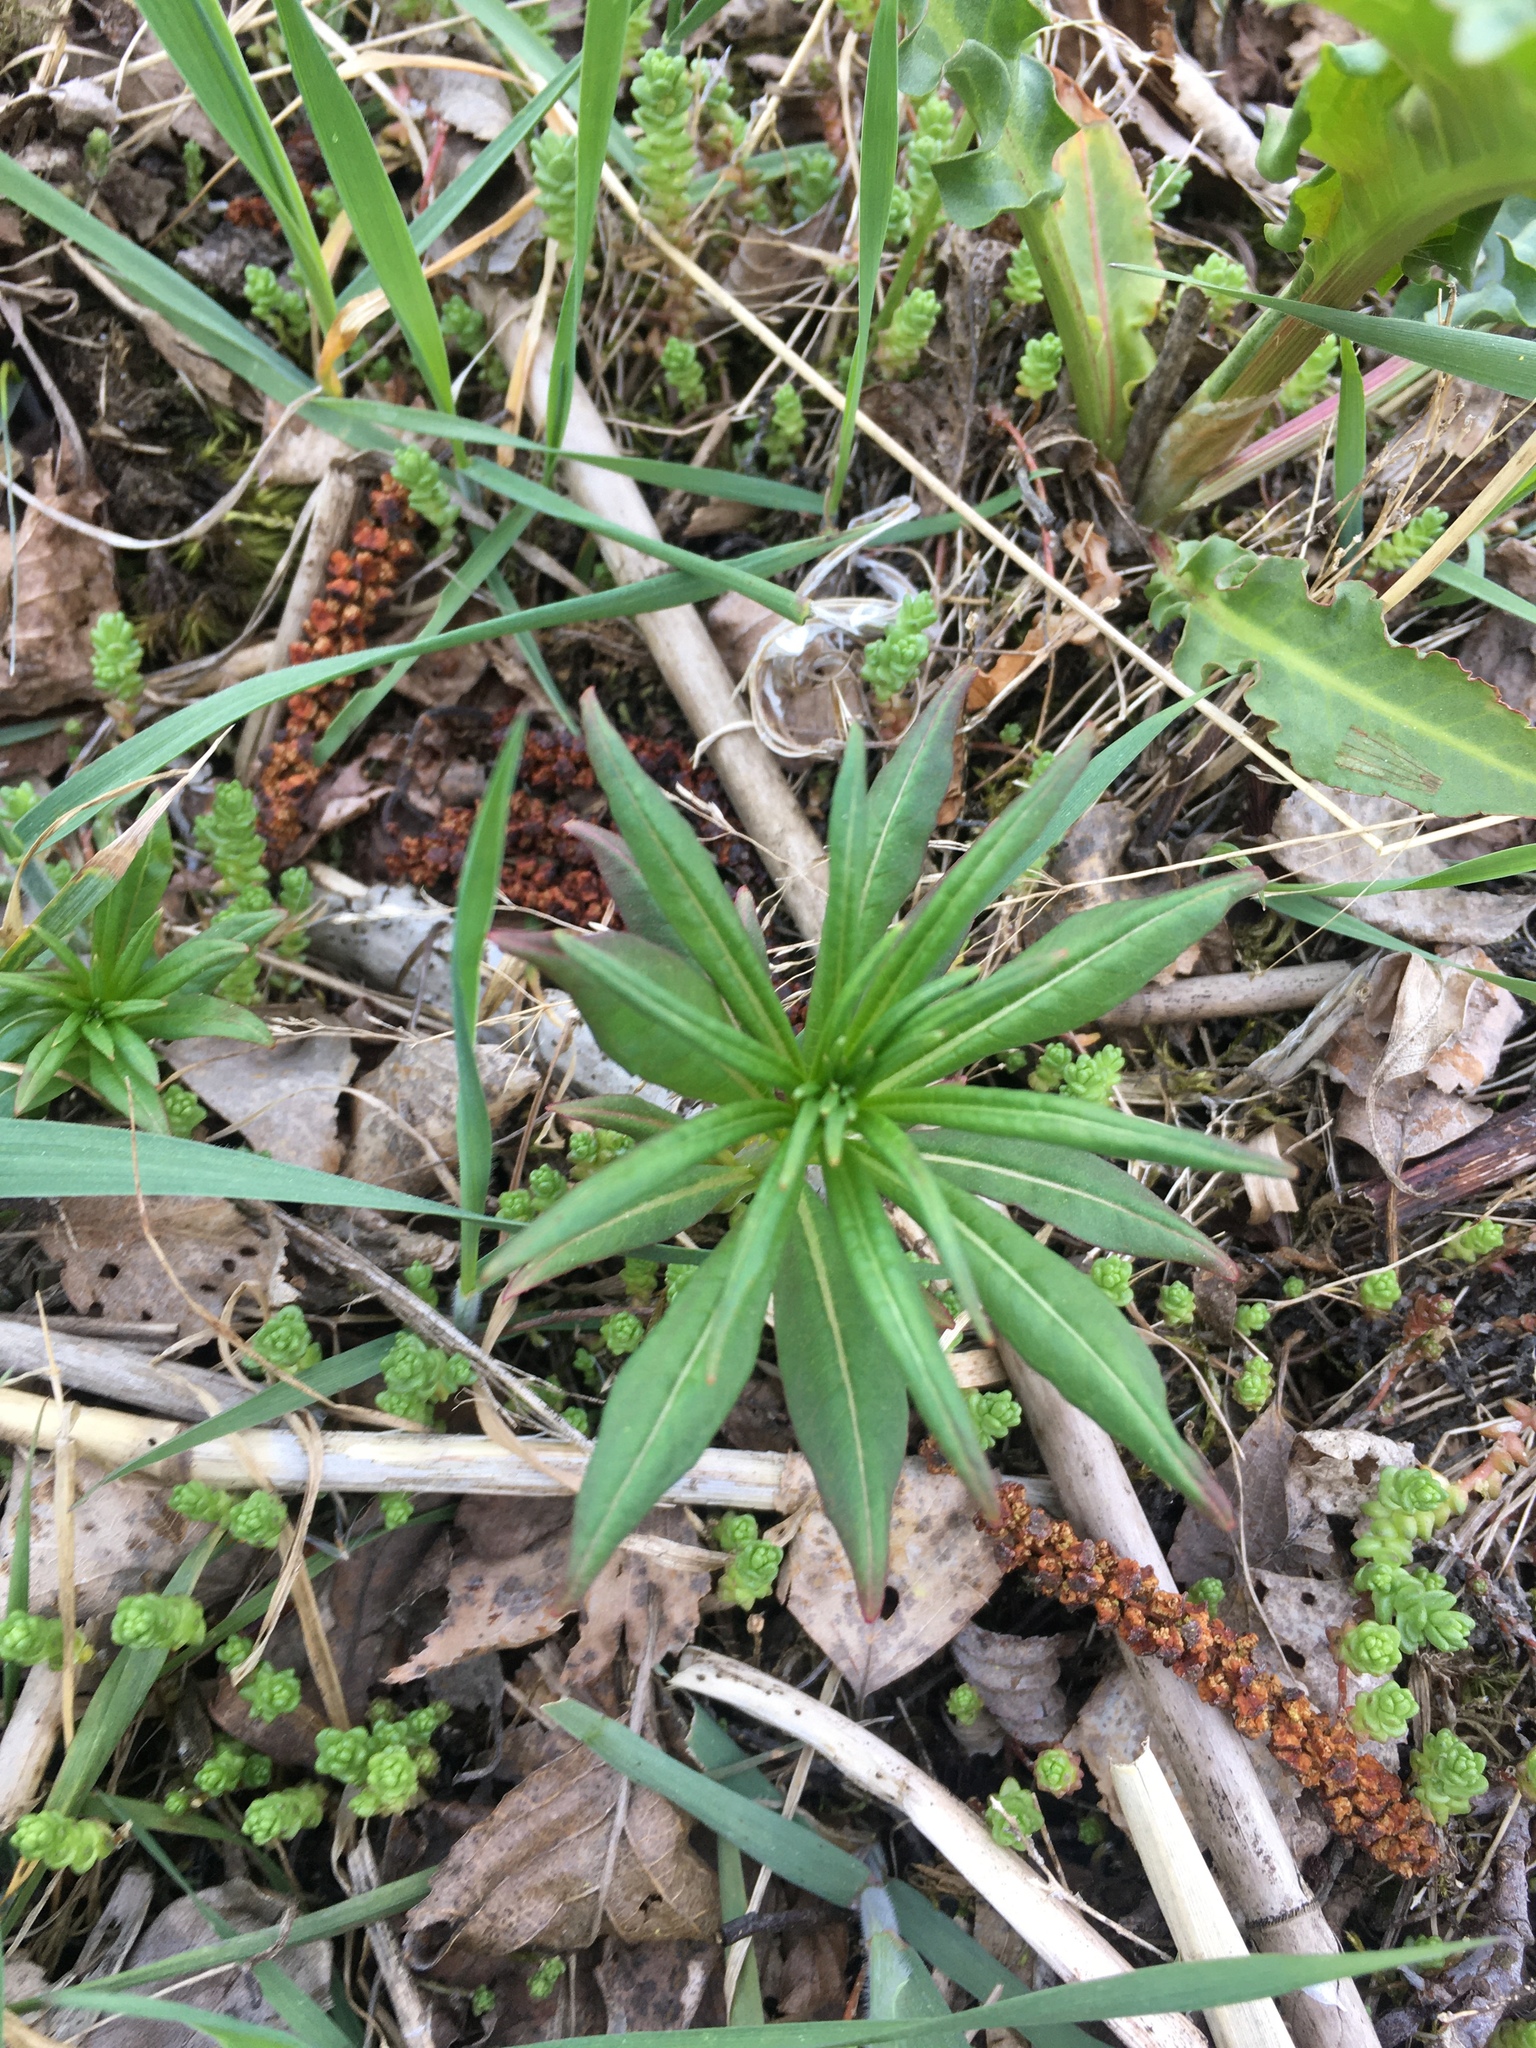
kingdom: Plantae
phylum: Tracheophyta
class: Magnoliopsida
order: Myrtales
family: Onagraceae
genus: Chamaenerion
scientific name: Chamaenerion angustifolium
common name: Fireweed
